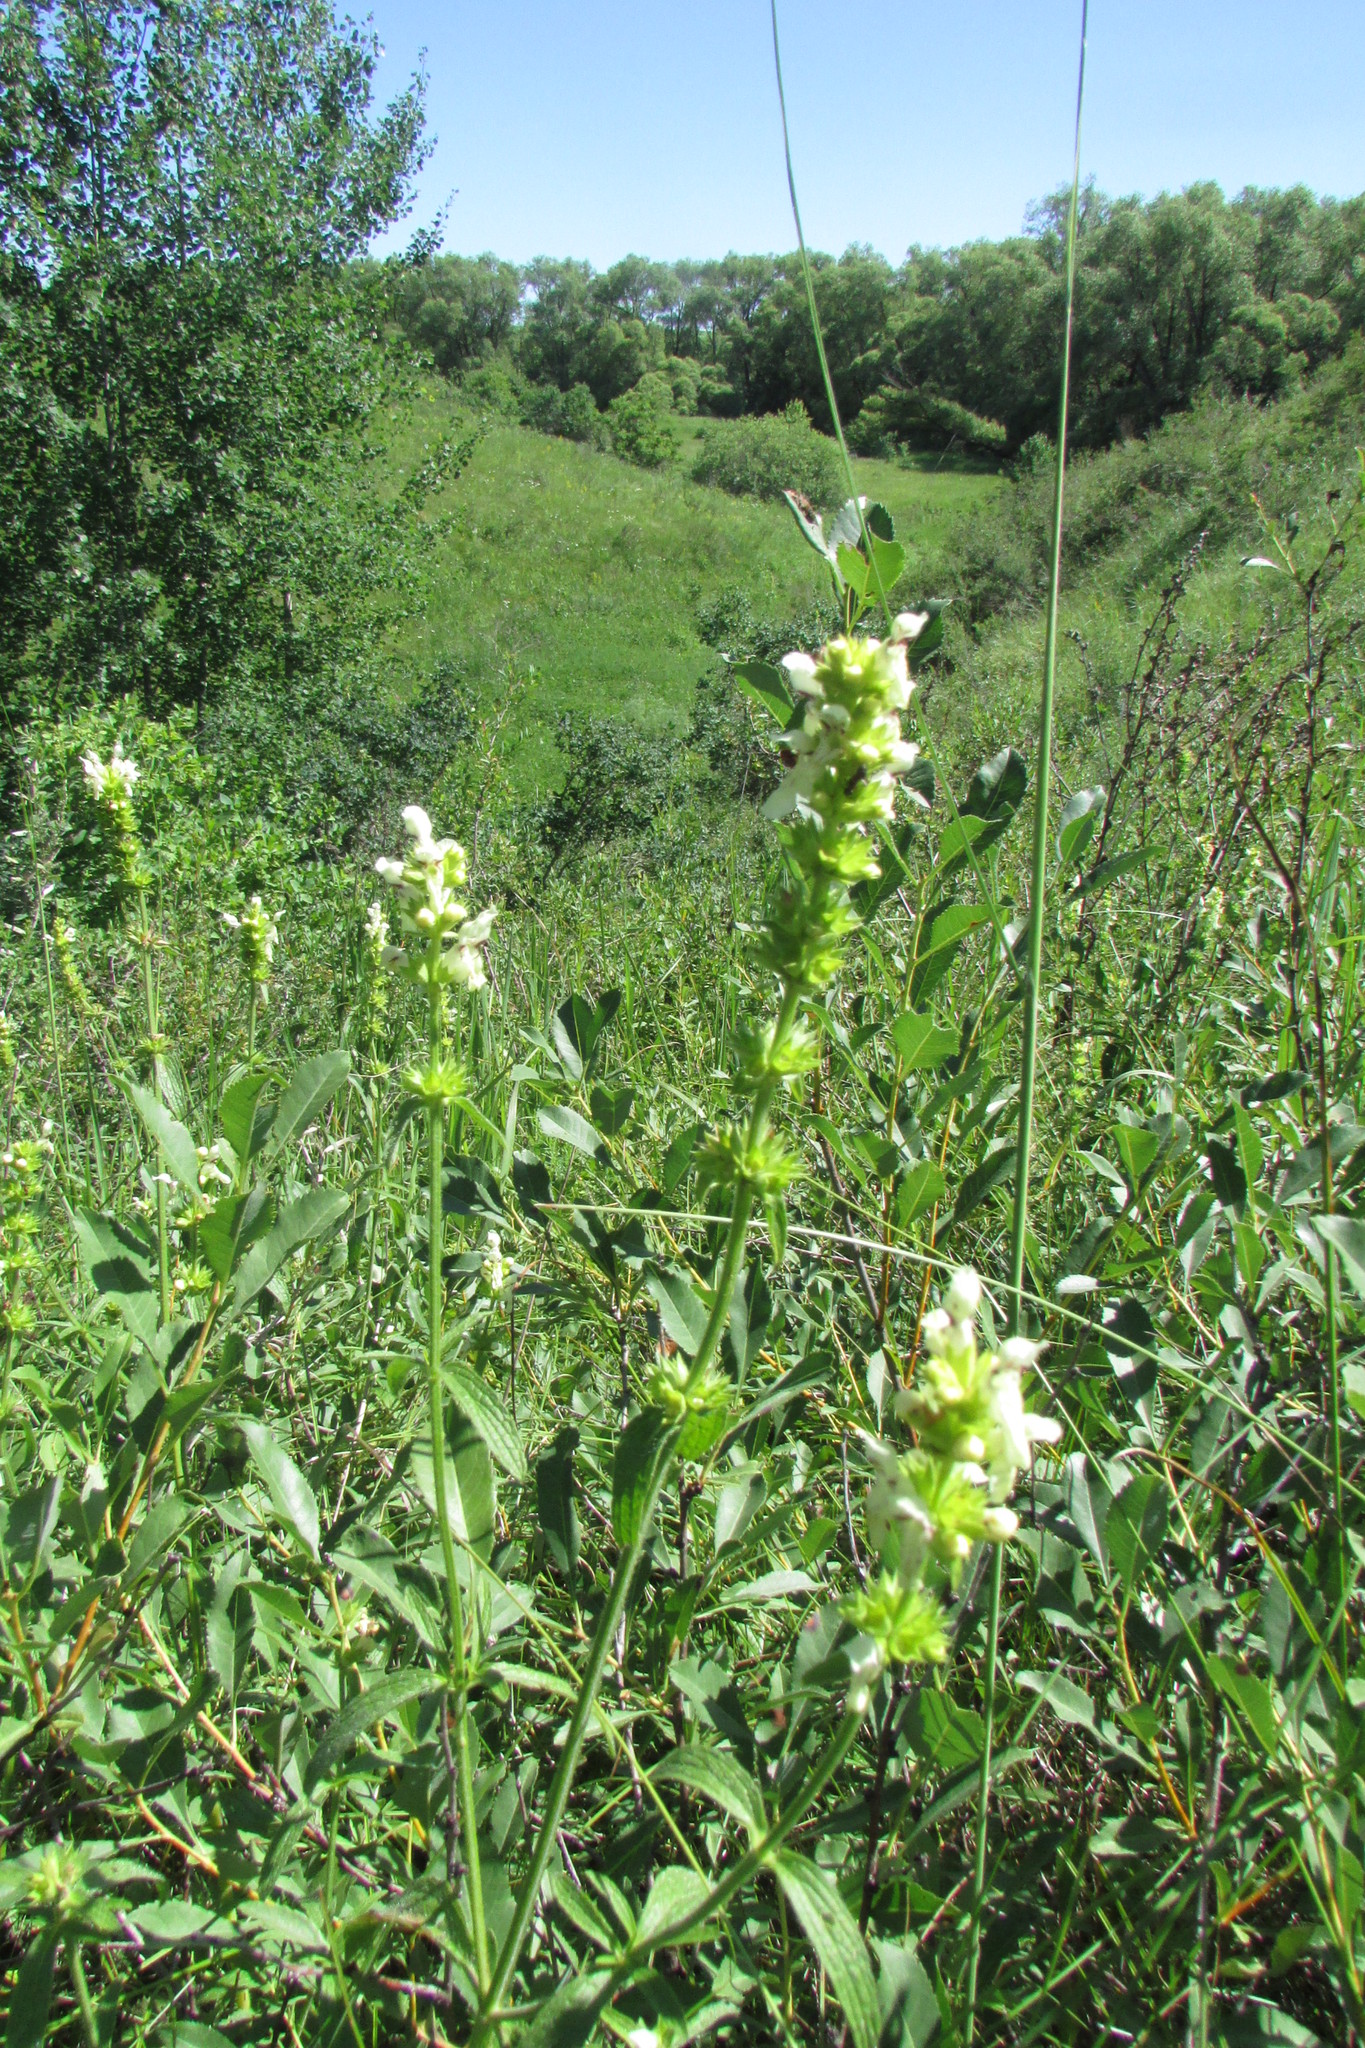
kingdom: Plantae
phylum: Tracheophyta
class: Magnoliopsida
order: Lamiales
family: Lamiaceae
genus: Stachys
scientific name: Stachys recta
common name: Perennial yellow-woundwort
